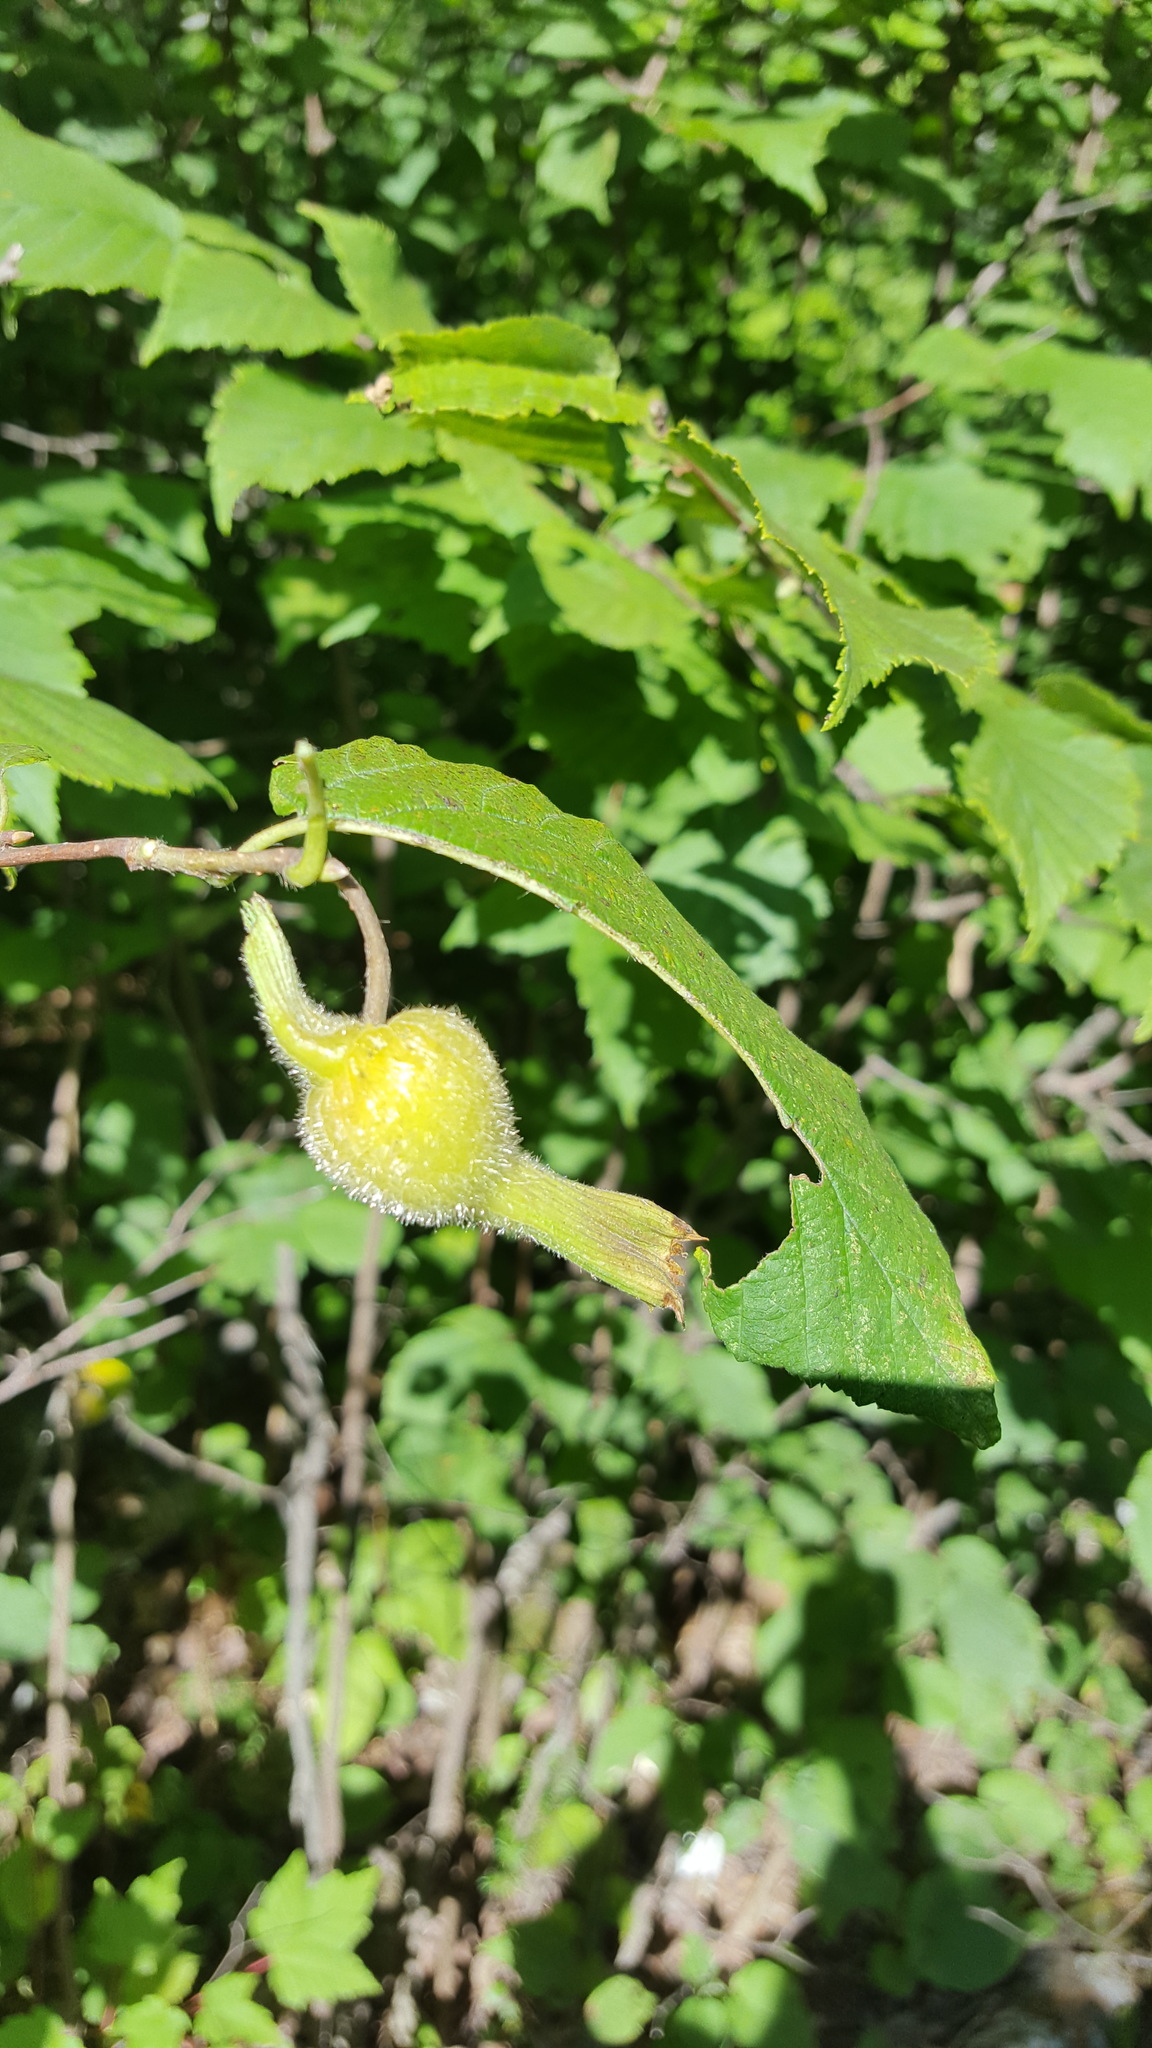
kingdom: Plantae
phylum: Tracheophyta
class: Magnoliopsida
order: Fagales
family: Betulaceae
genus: Corylus
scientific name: Corylus cornuta
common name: Beaked hazel
